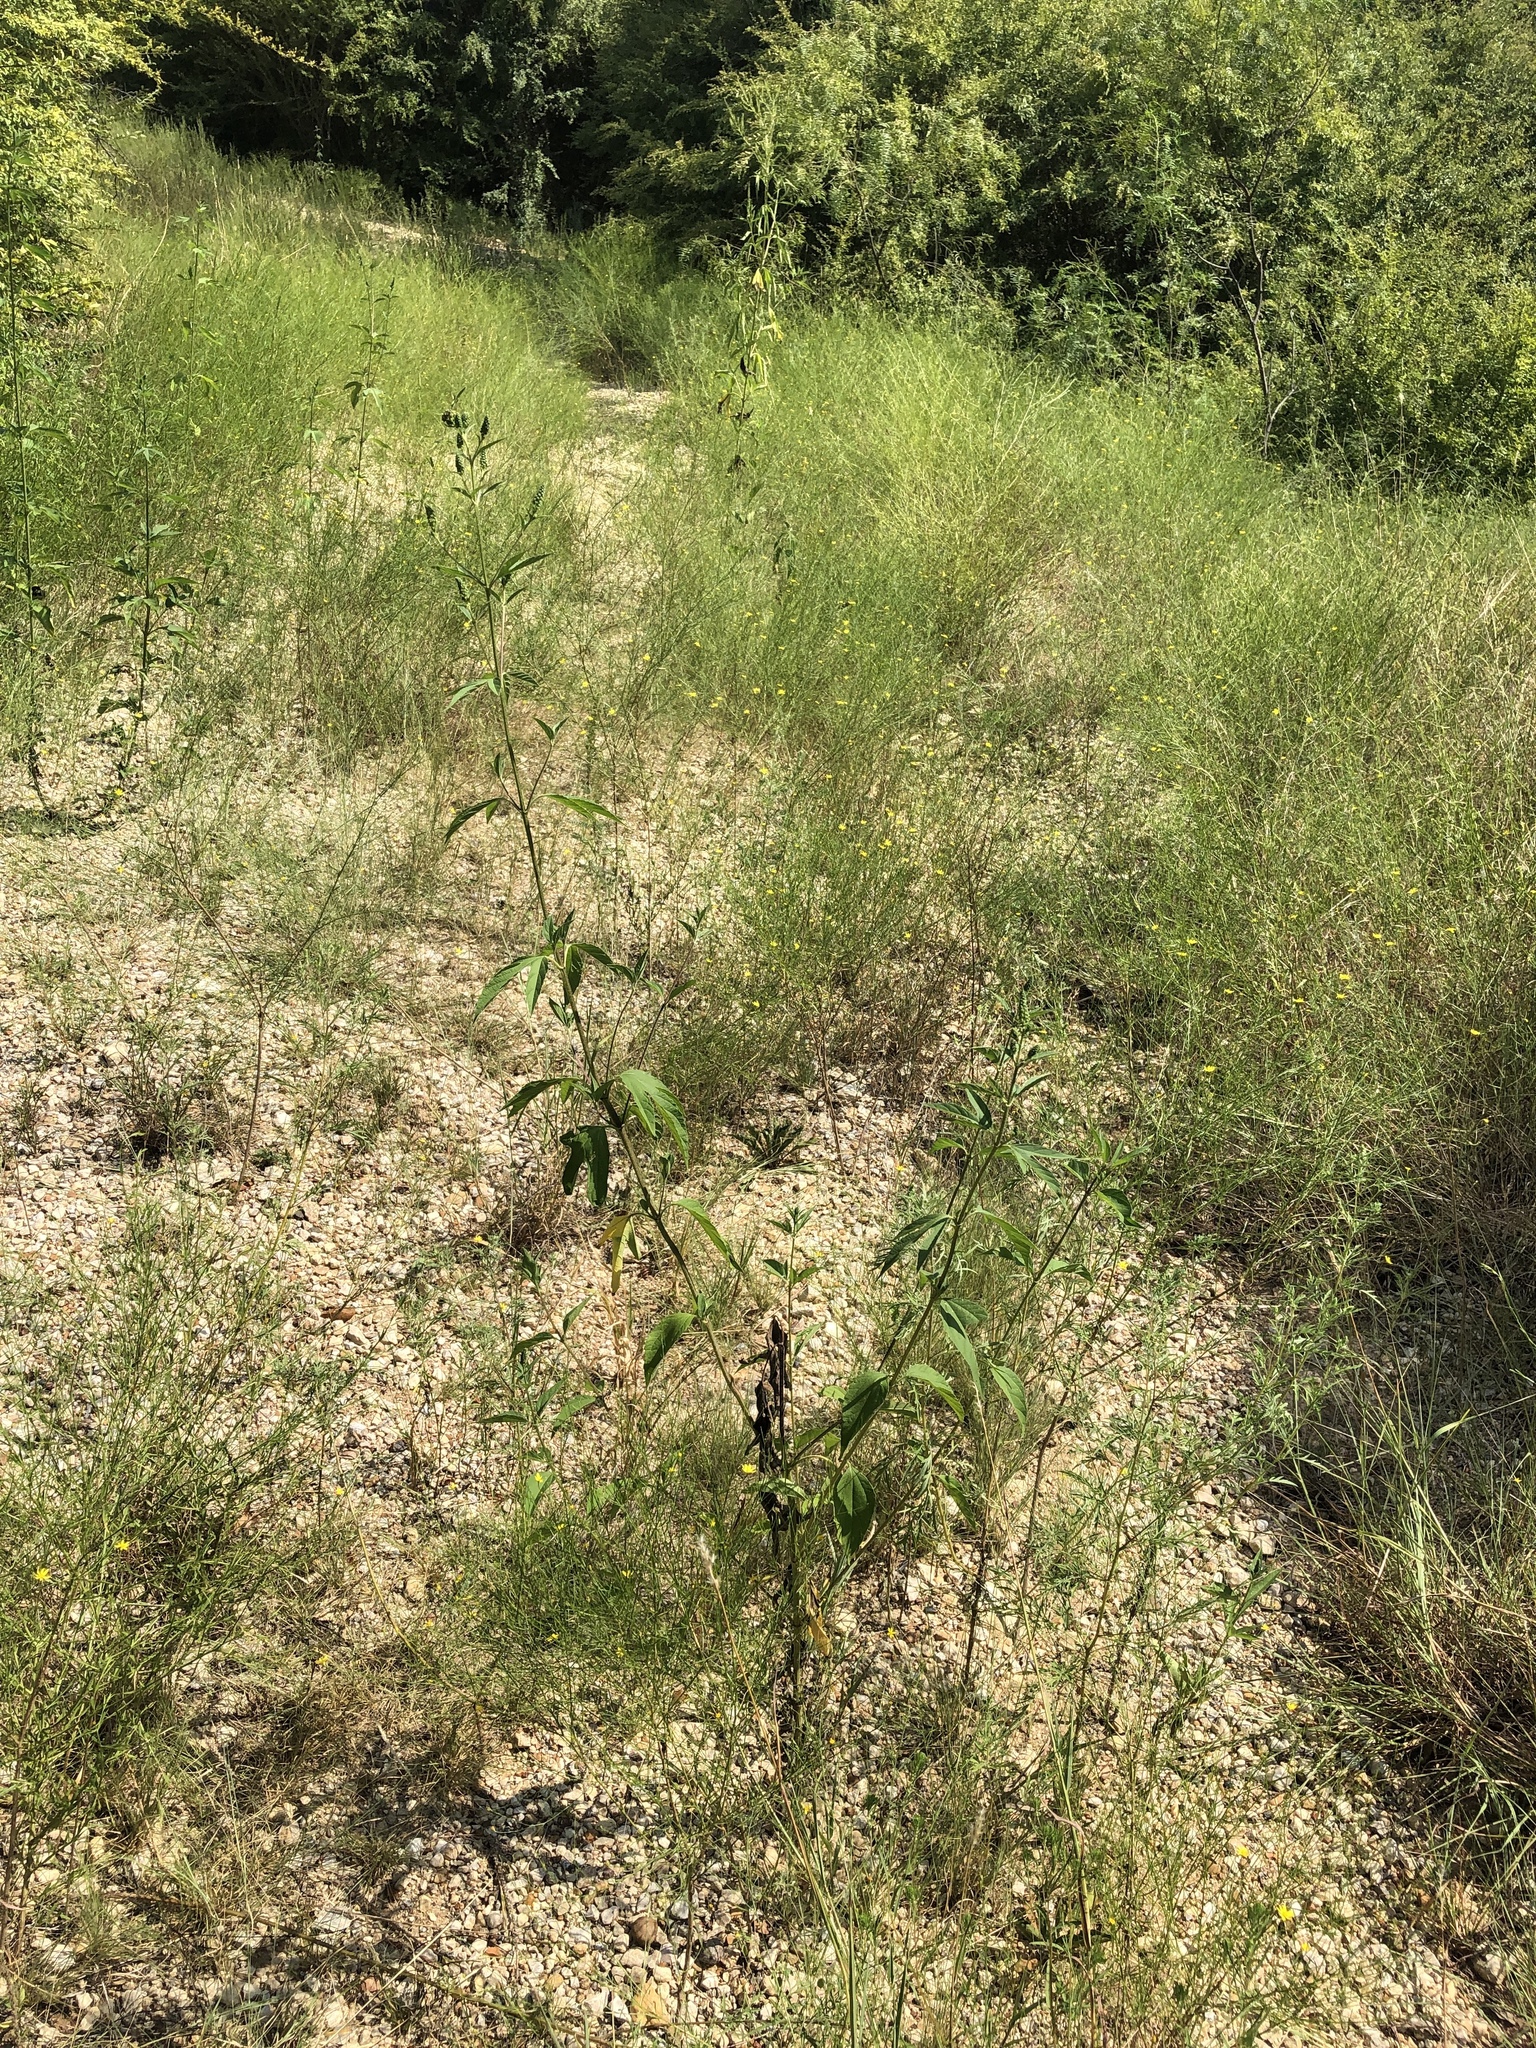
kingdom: Plantae
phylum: Tracheophyta
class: Magnoliopsida
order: Asterales
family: Asteraceae
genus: Ambrosia
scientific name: Ambrosia trifida
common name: Giant ragweed
